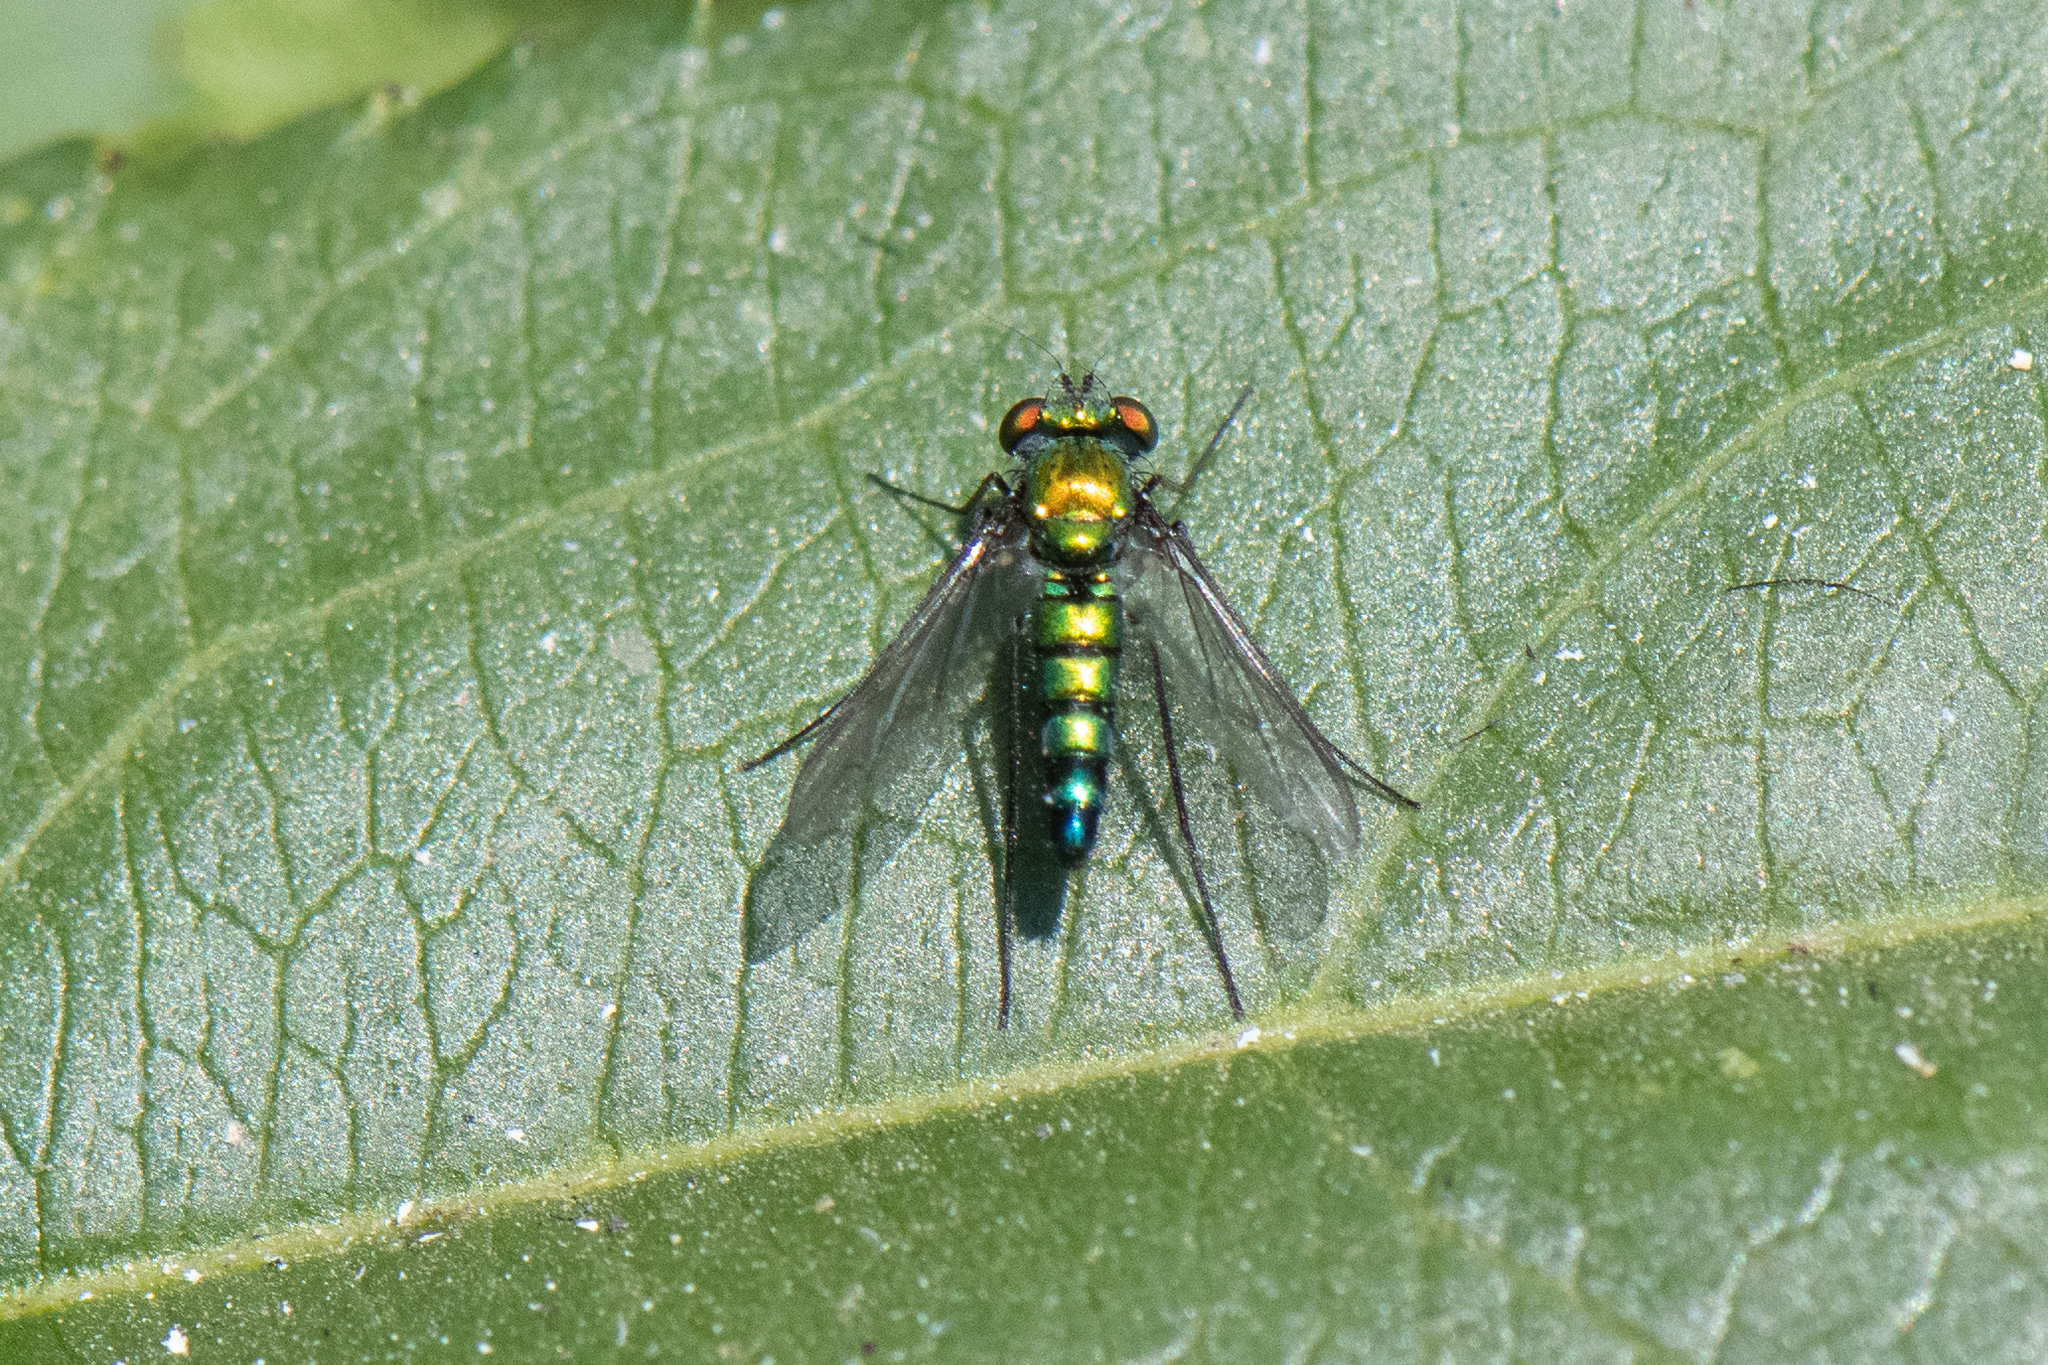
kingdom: Animalia
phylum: Arthropoda
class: Insecta
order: Diptera
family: Dolichopodidae
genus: Condylostylus
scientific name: Condylostylus longicornis
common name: Long-legged fly
